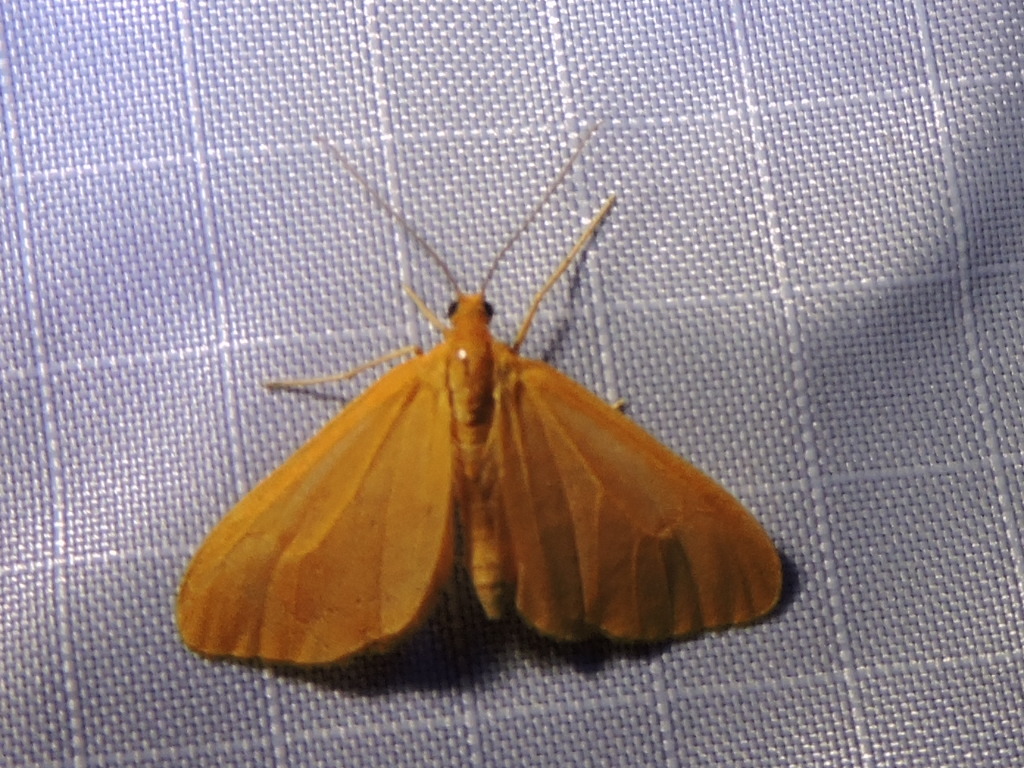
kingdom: Animalia
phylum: Arthropoda
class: Insecta
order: Lepidoptera
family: Geometridae
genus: Eubaphe
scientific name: Eubaphe unicolor
